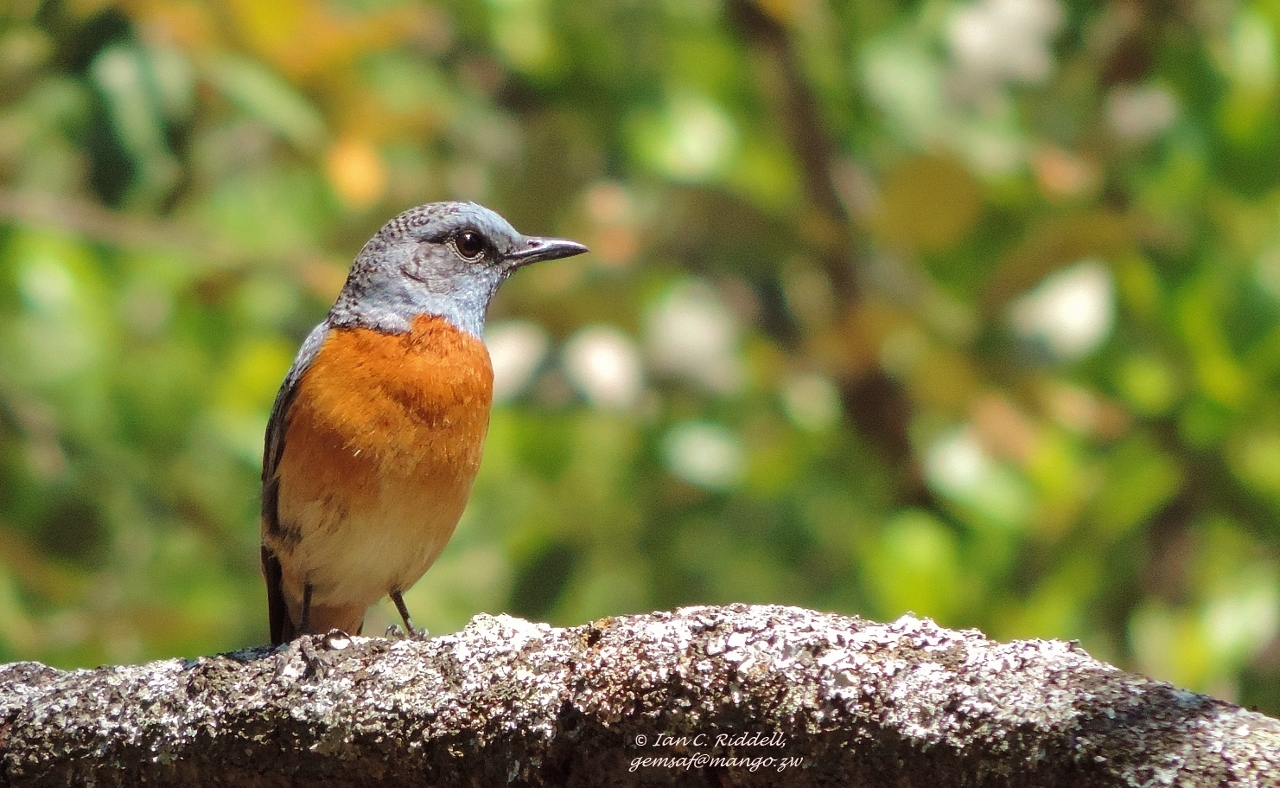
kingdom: Animalia
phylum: Chordata
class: Aves
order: Passeriformes
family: Muscicapidae
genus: Monticola
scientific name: Monticola angolensis
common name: Miombo rock thrush
